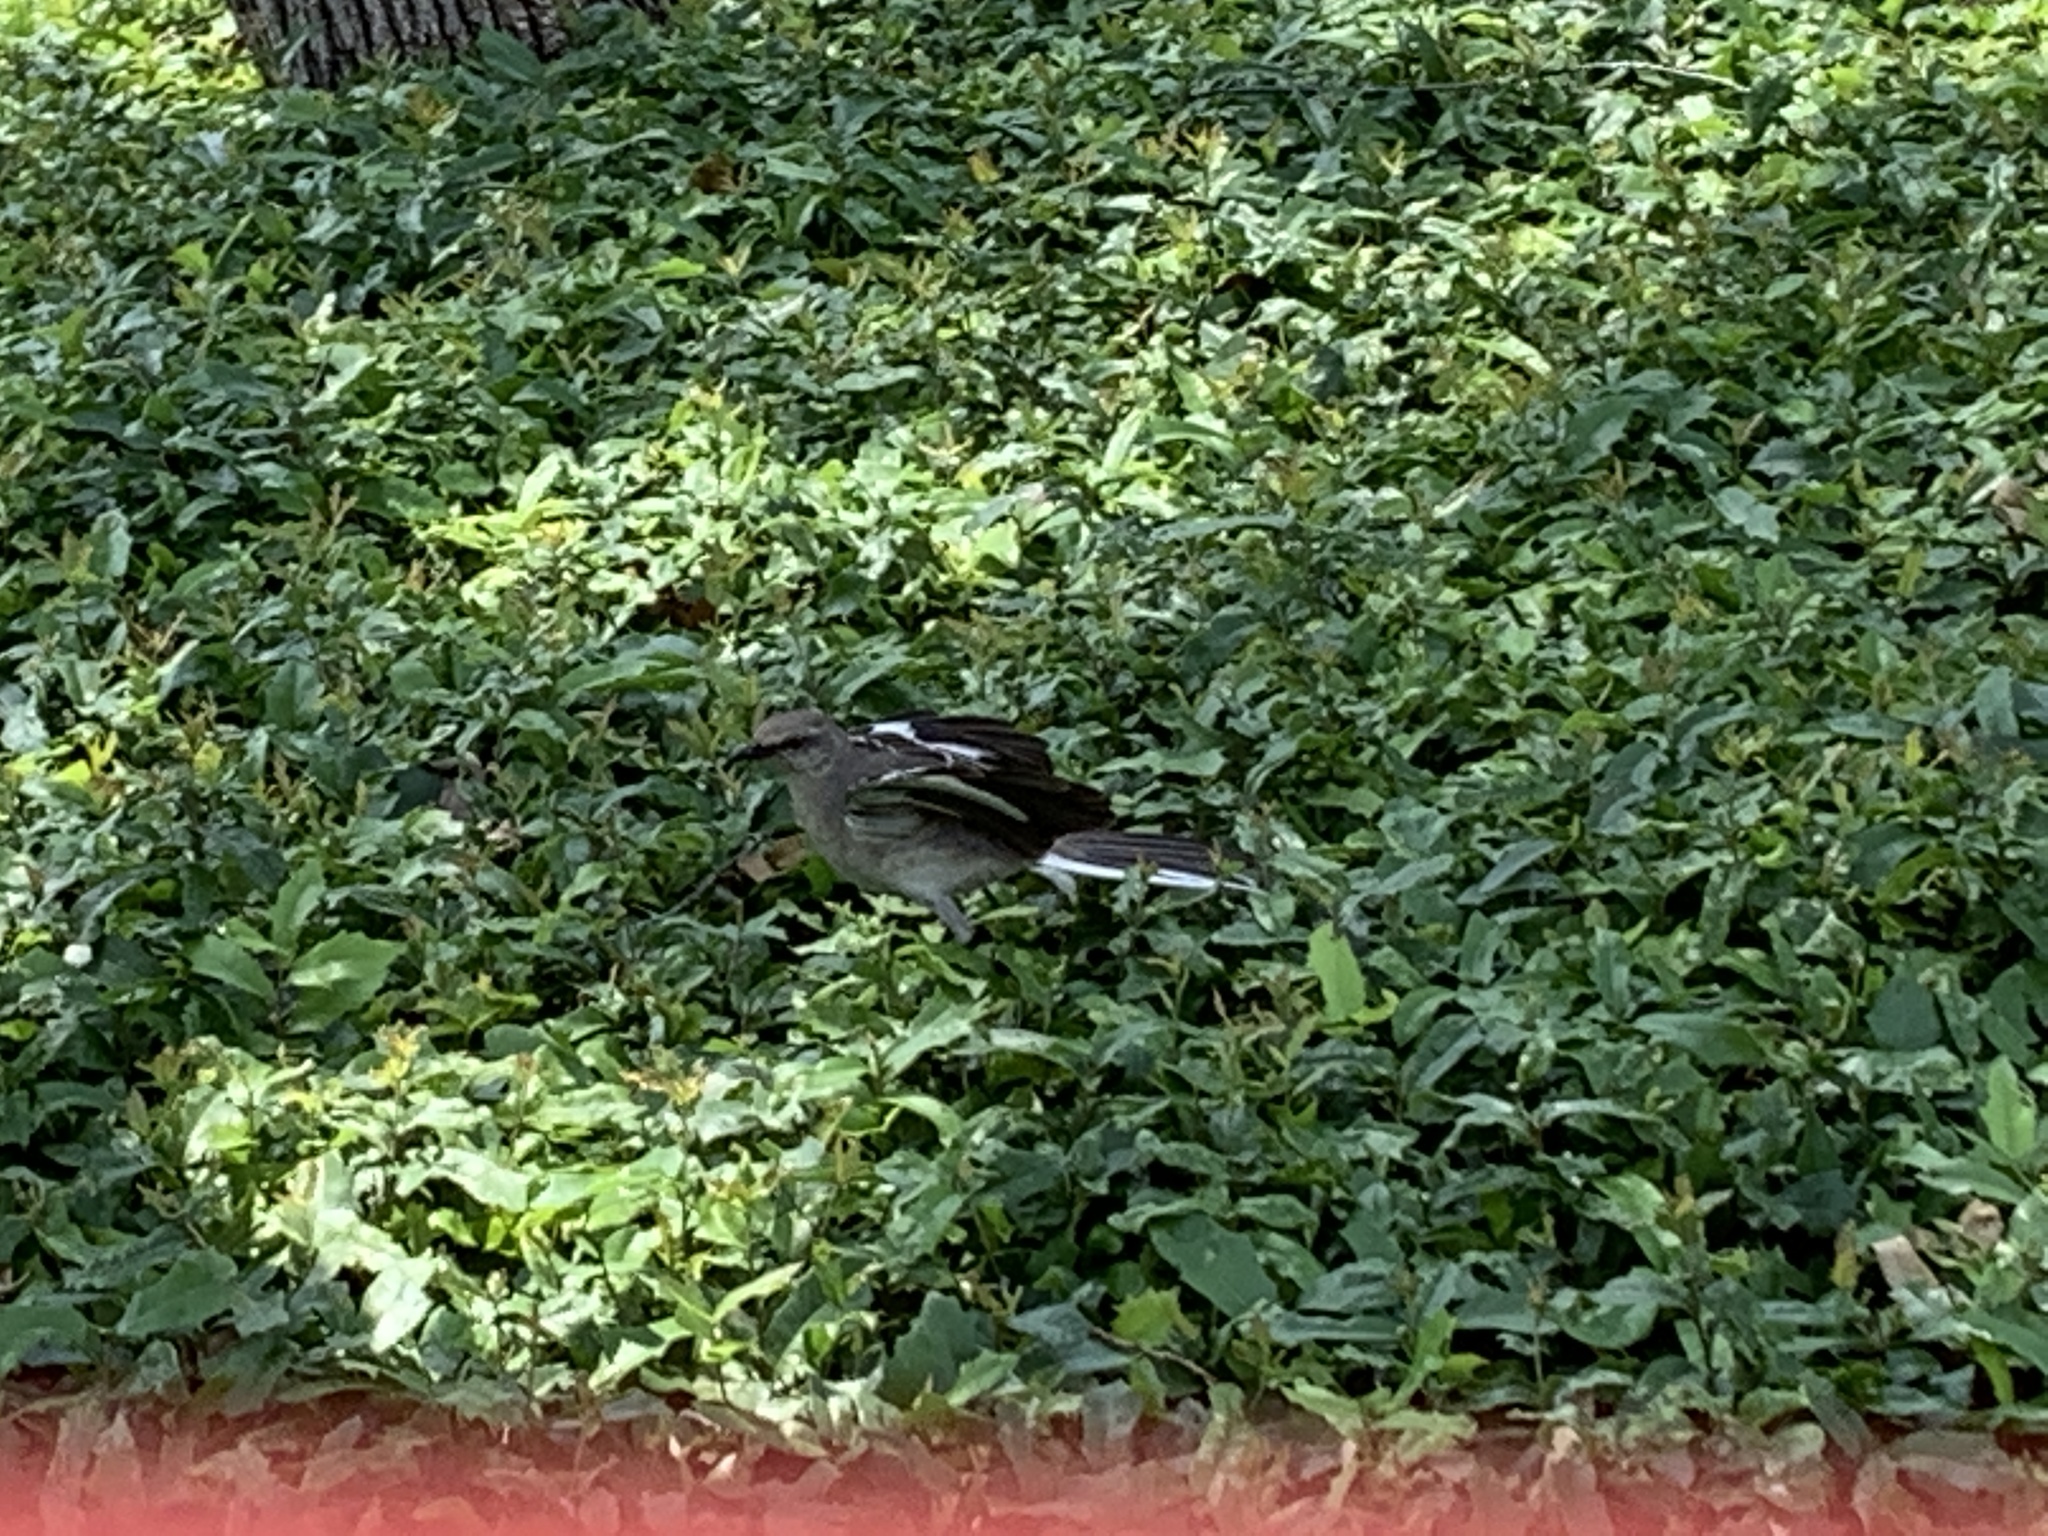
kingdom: Animalia
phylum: Chordata
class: Aves
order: Passeriformes
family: Mimidae
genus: Mimus
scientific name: Mimus polyglottos
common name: Northern mockingbird
